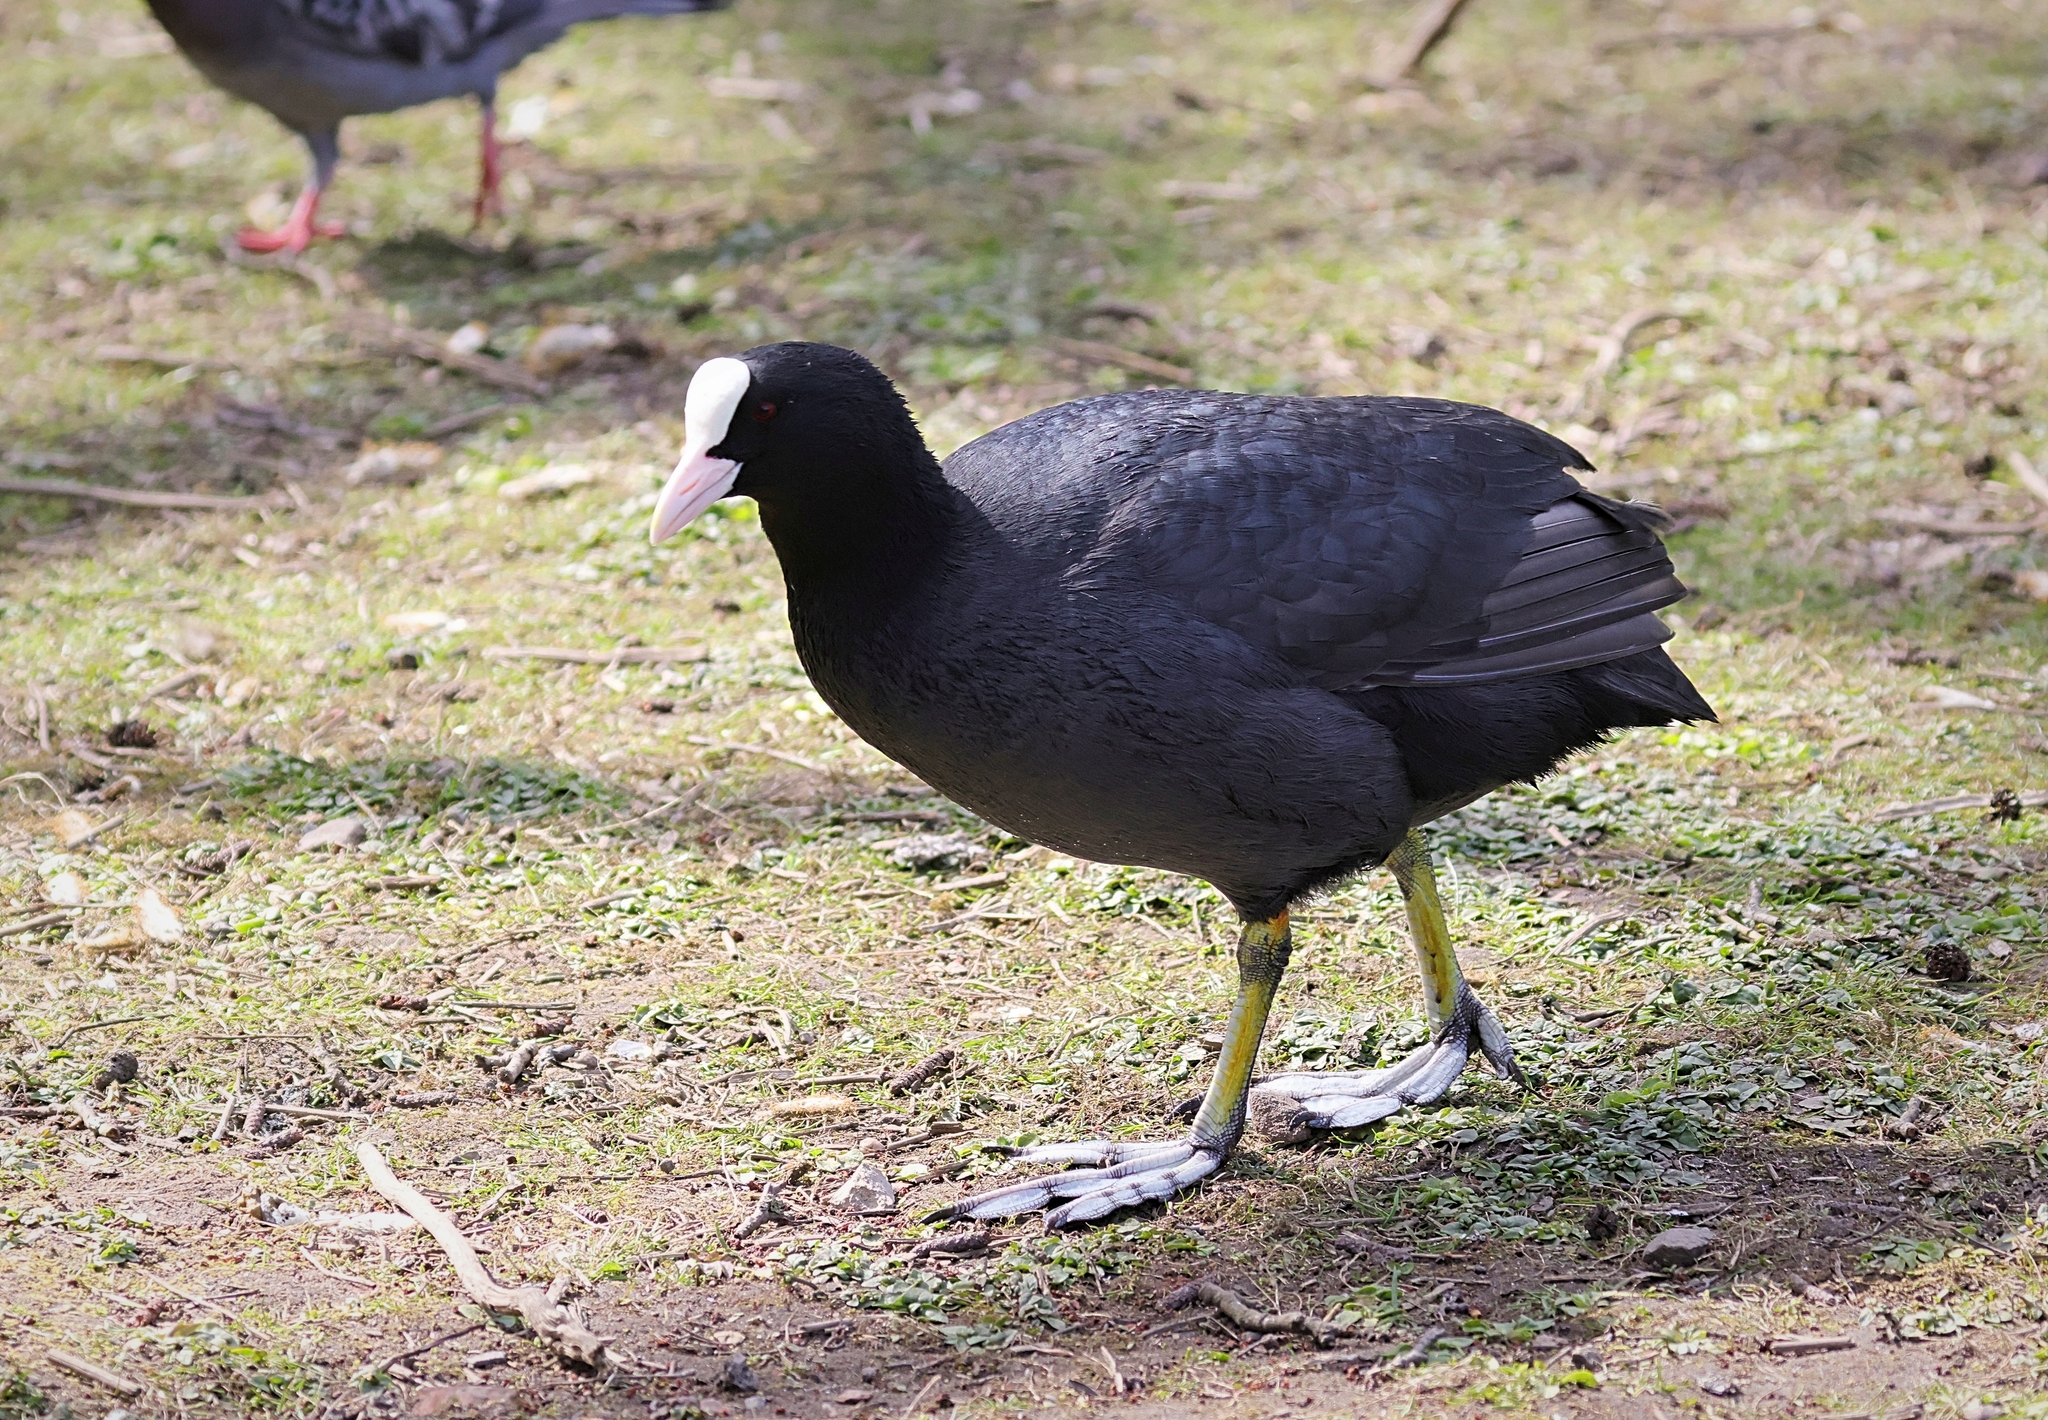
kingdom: Animalia
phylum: Chordata
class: Aves
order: Gruiformes
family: Rallidae
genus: Fulica
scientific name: Fulica atra
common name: Eurasian coot
